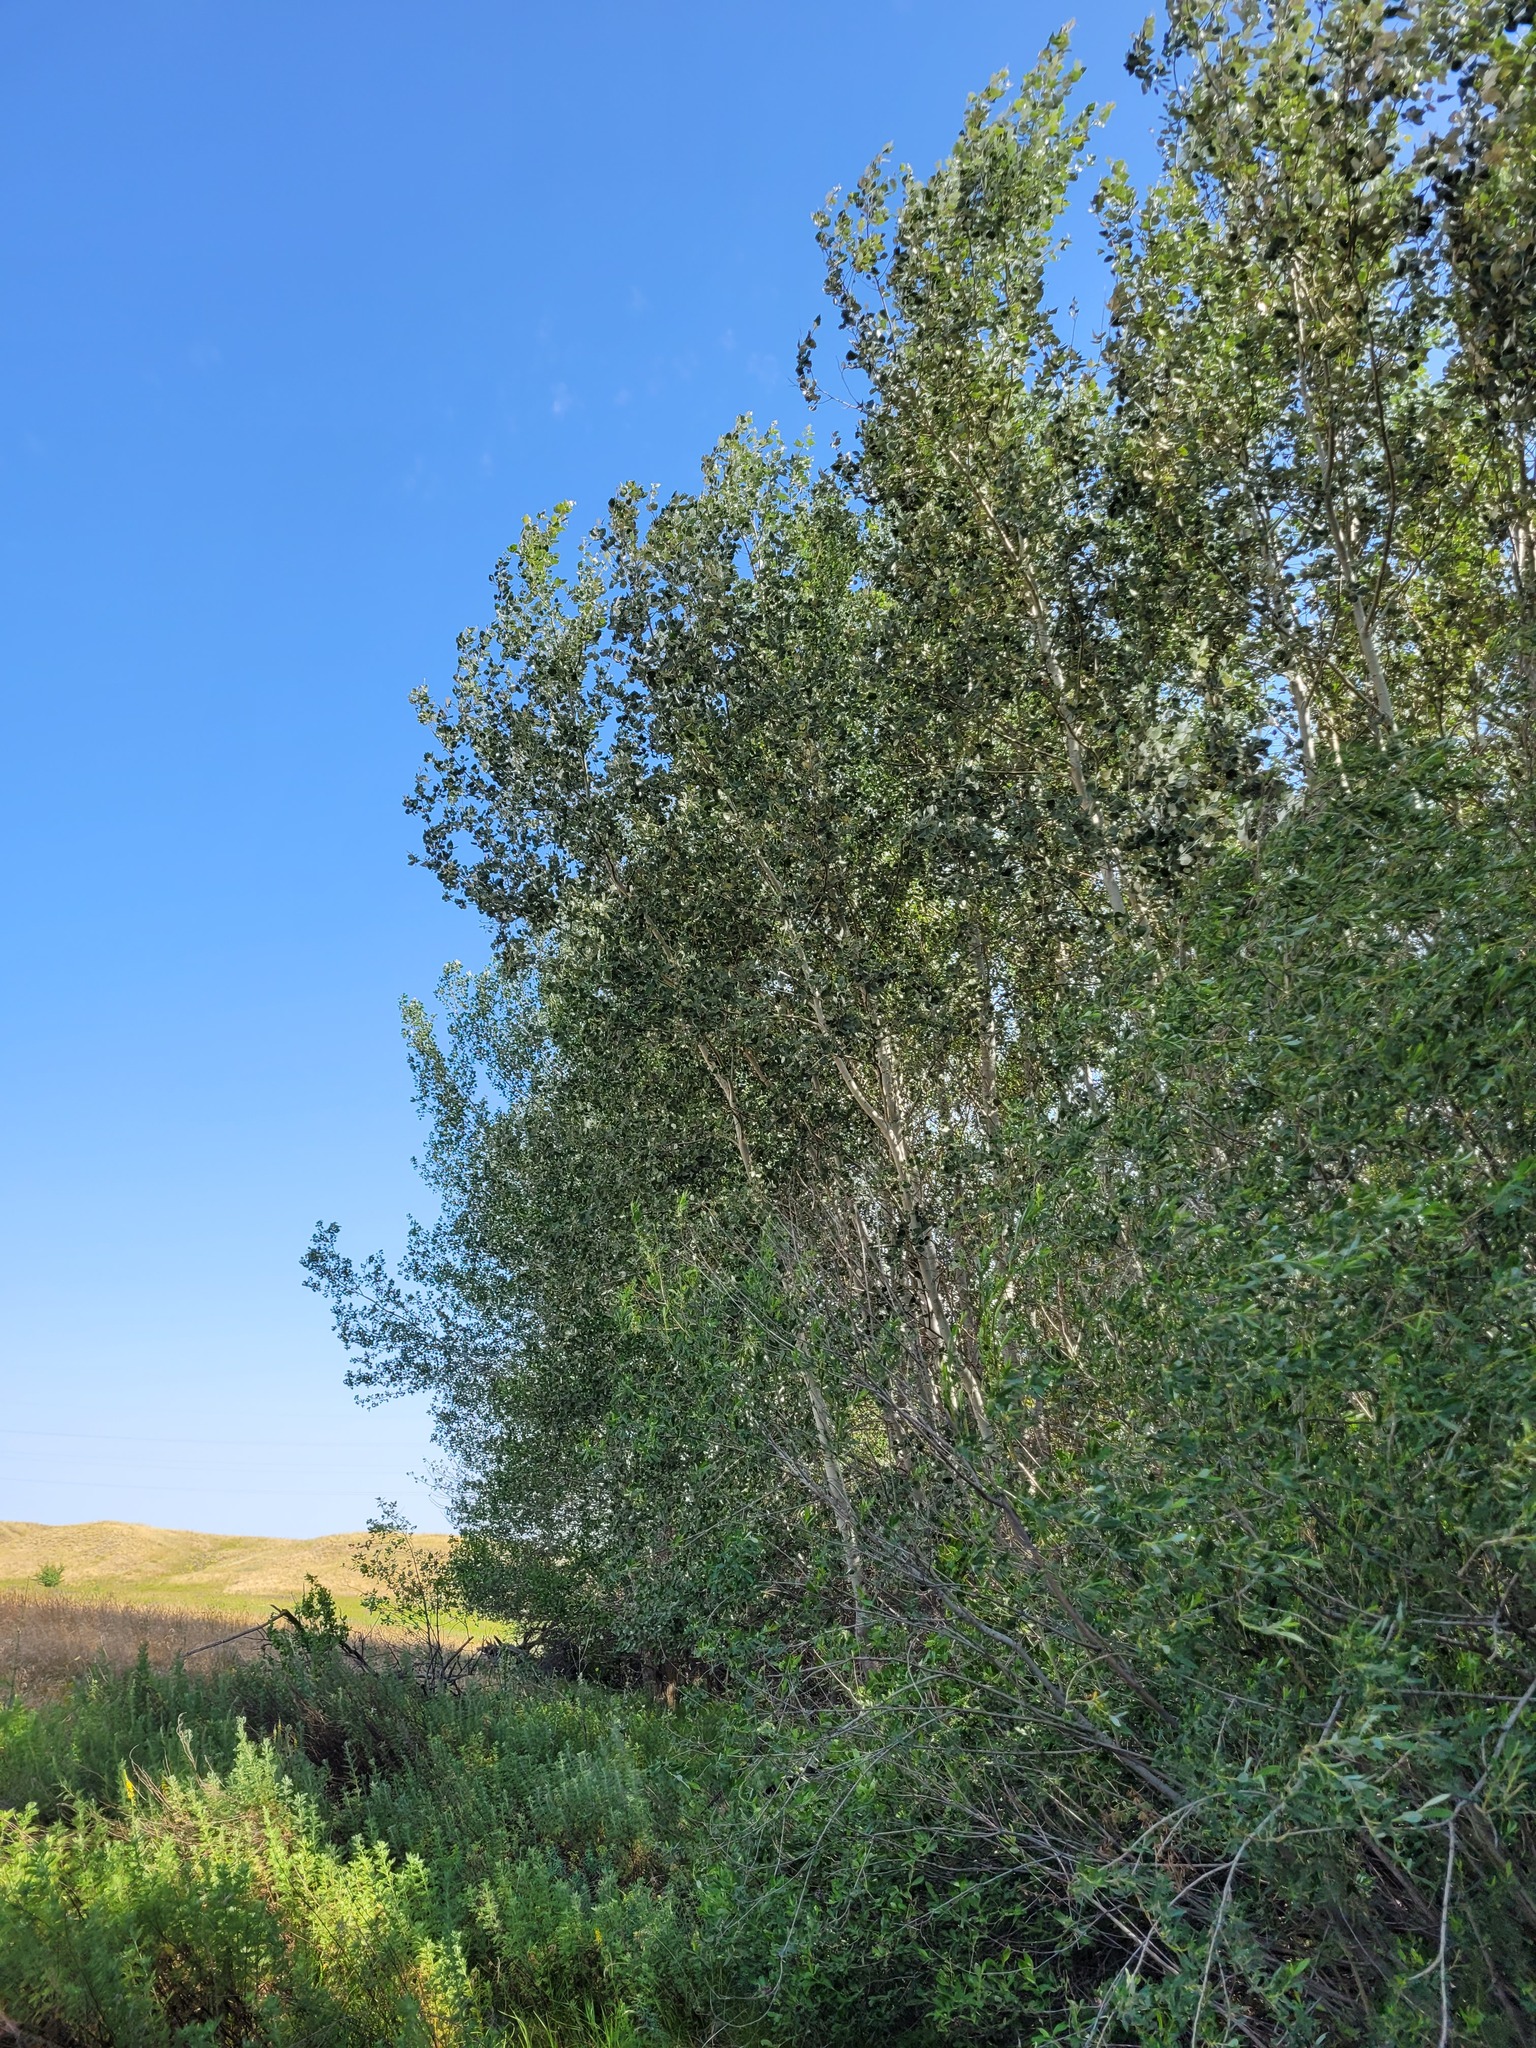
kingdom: Plantae
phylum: Tracheophyta
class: Magnoliopsida
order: Malpighiales
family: Salicaceae
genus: Populus
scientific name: Populus alba
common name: White poplar
